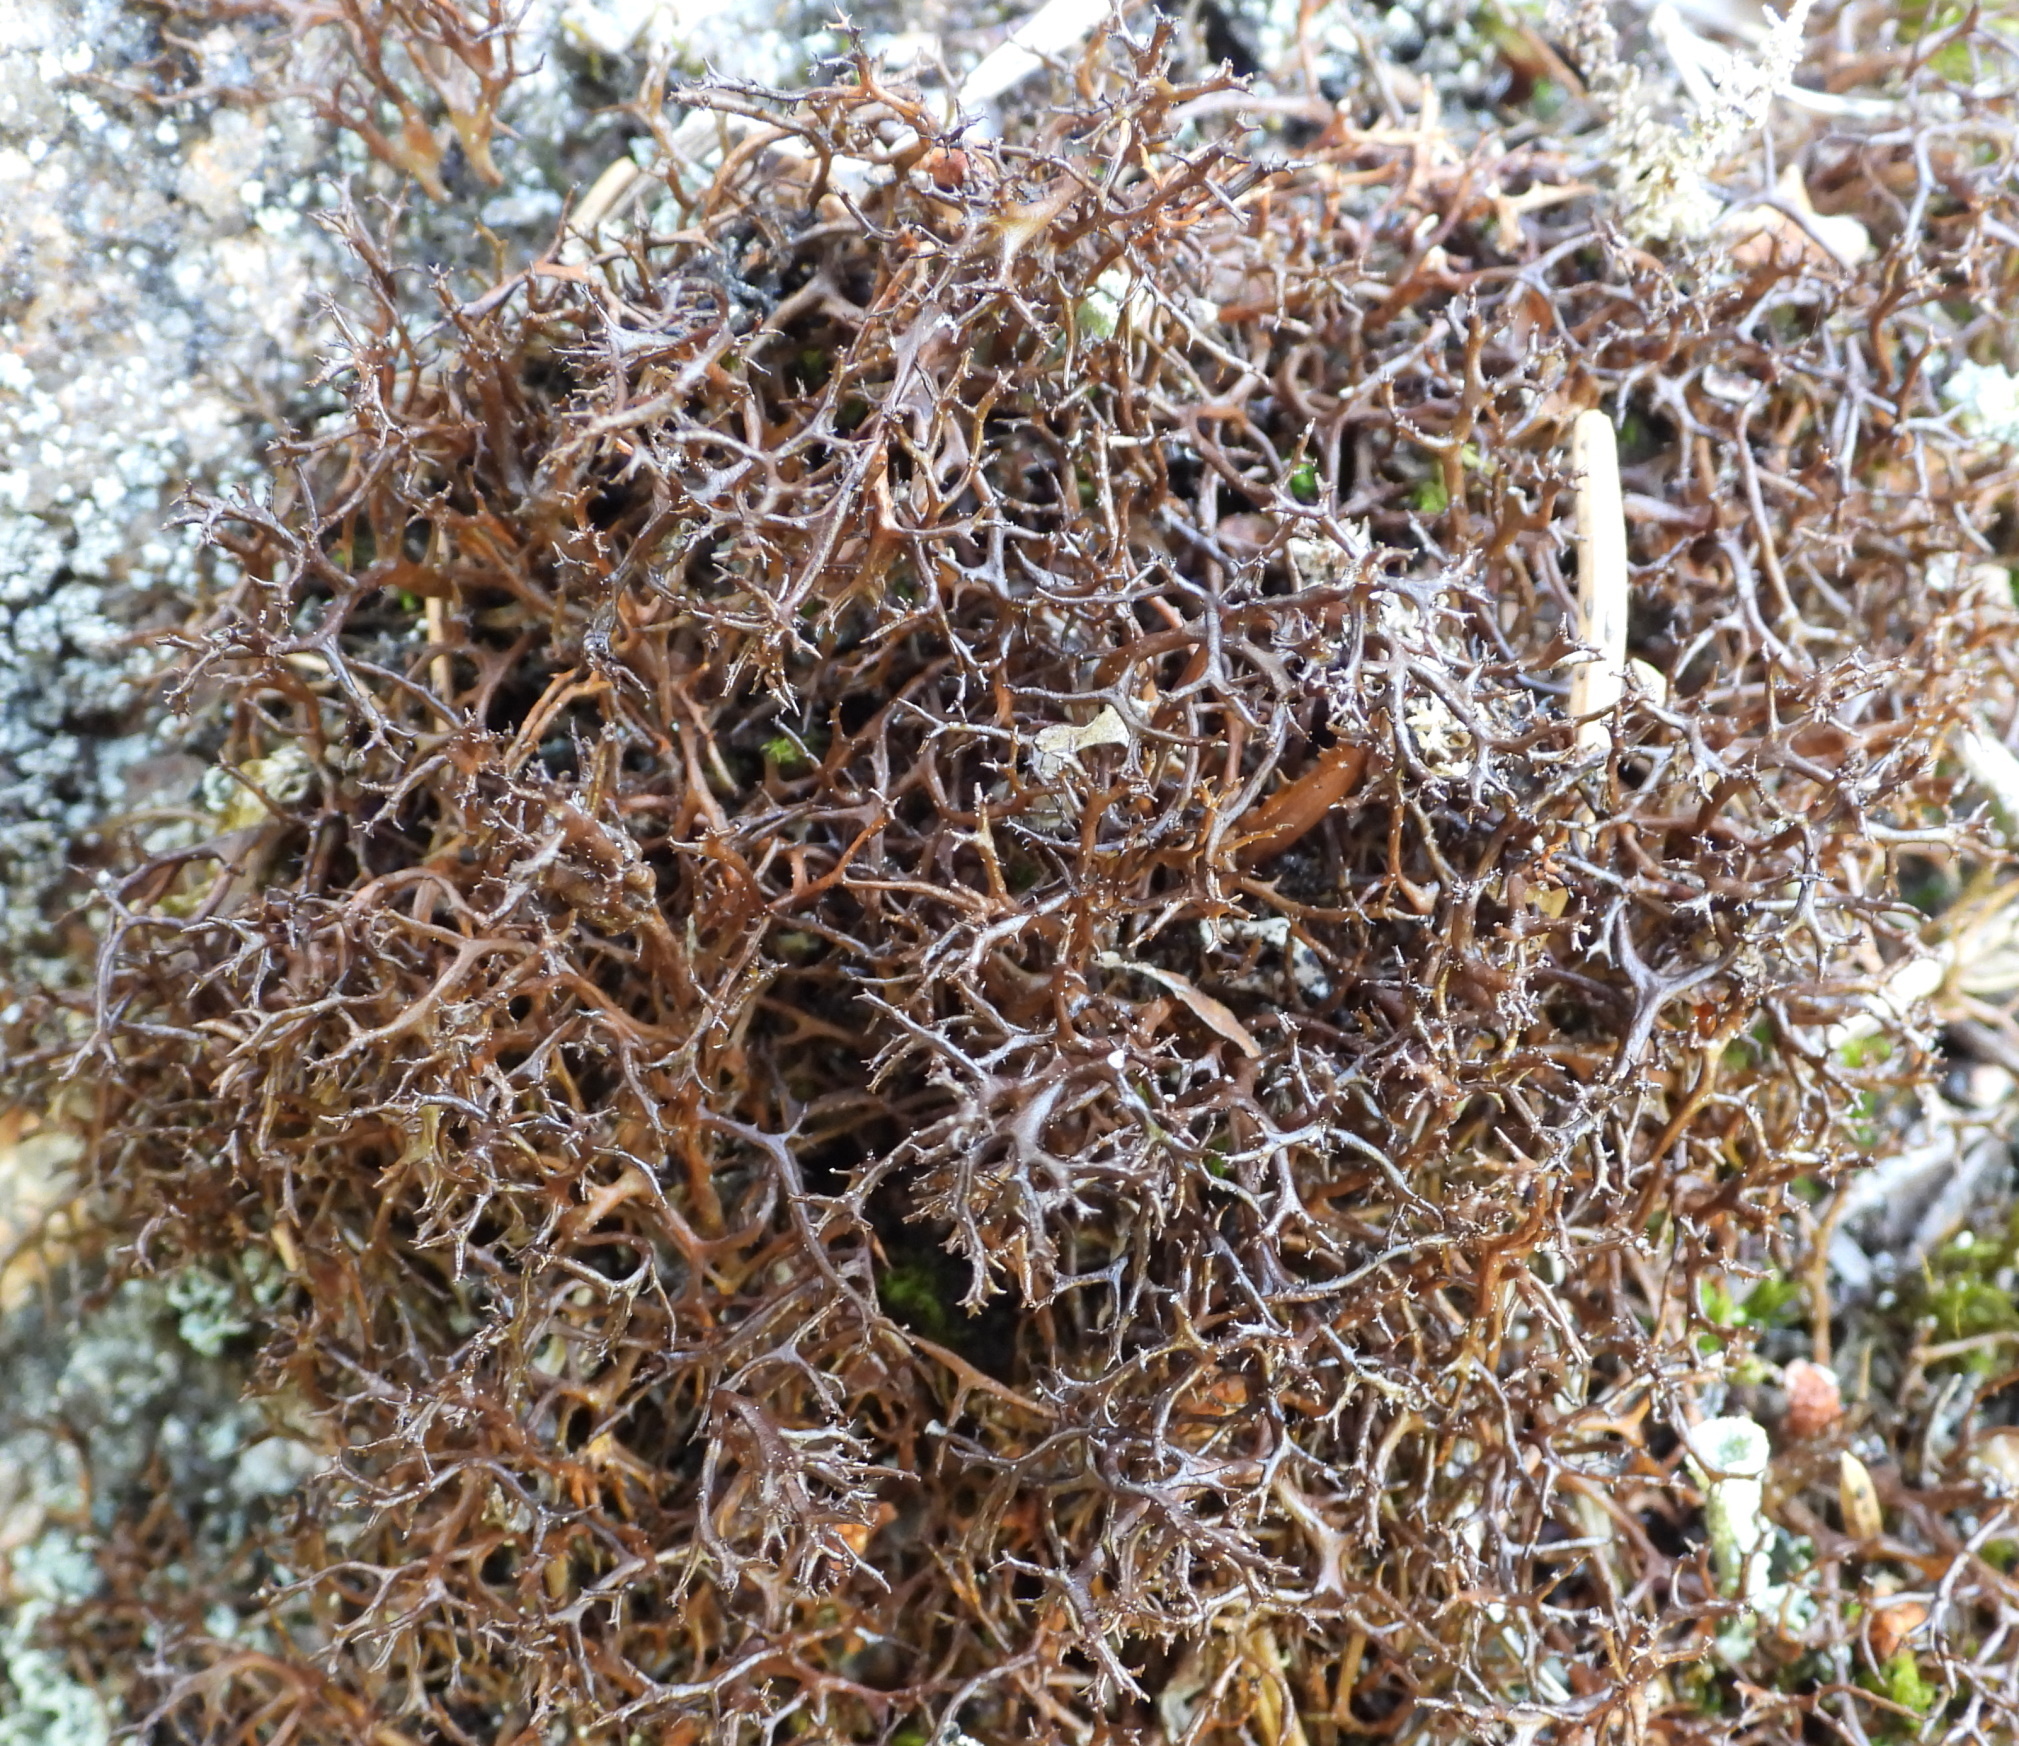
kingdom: Fungi
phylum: Ascomycota
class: Lecanoromycetes
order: Lecanorales
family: Parmeliaceae
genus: Cetraria
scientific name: Cetraria muricata
